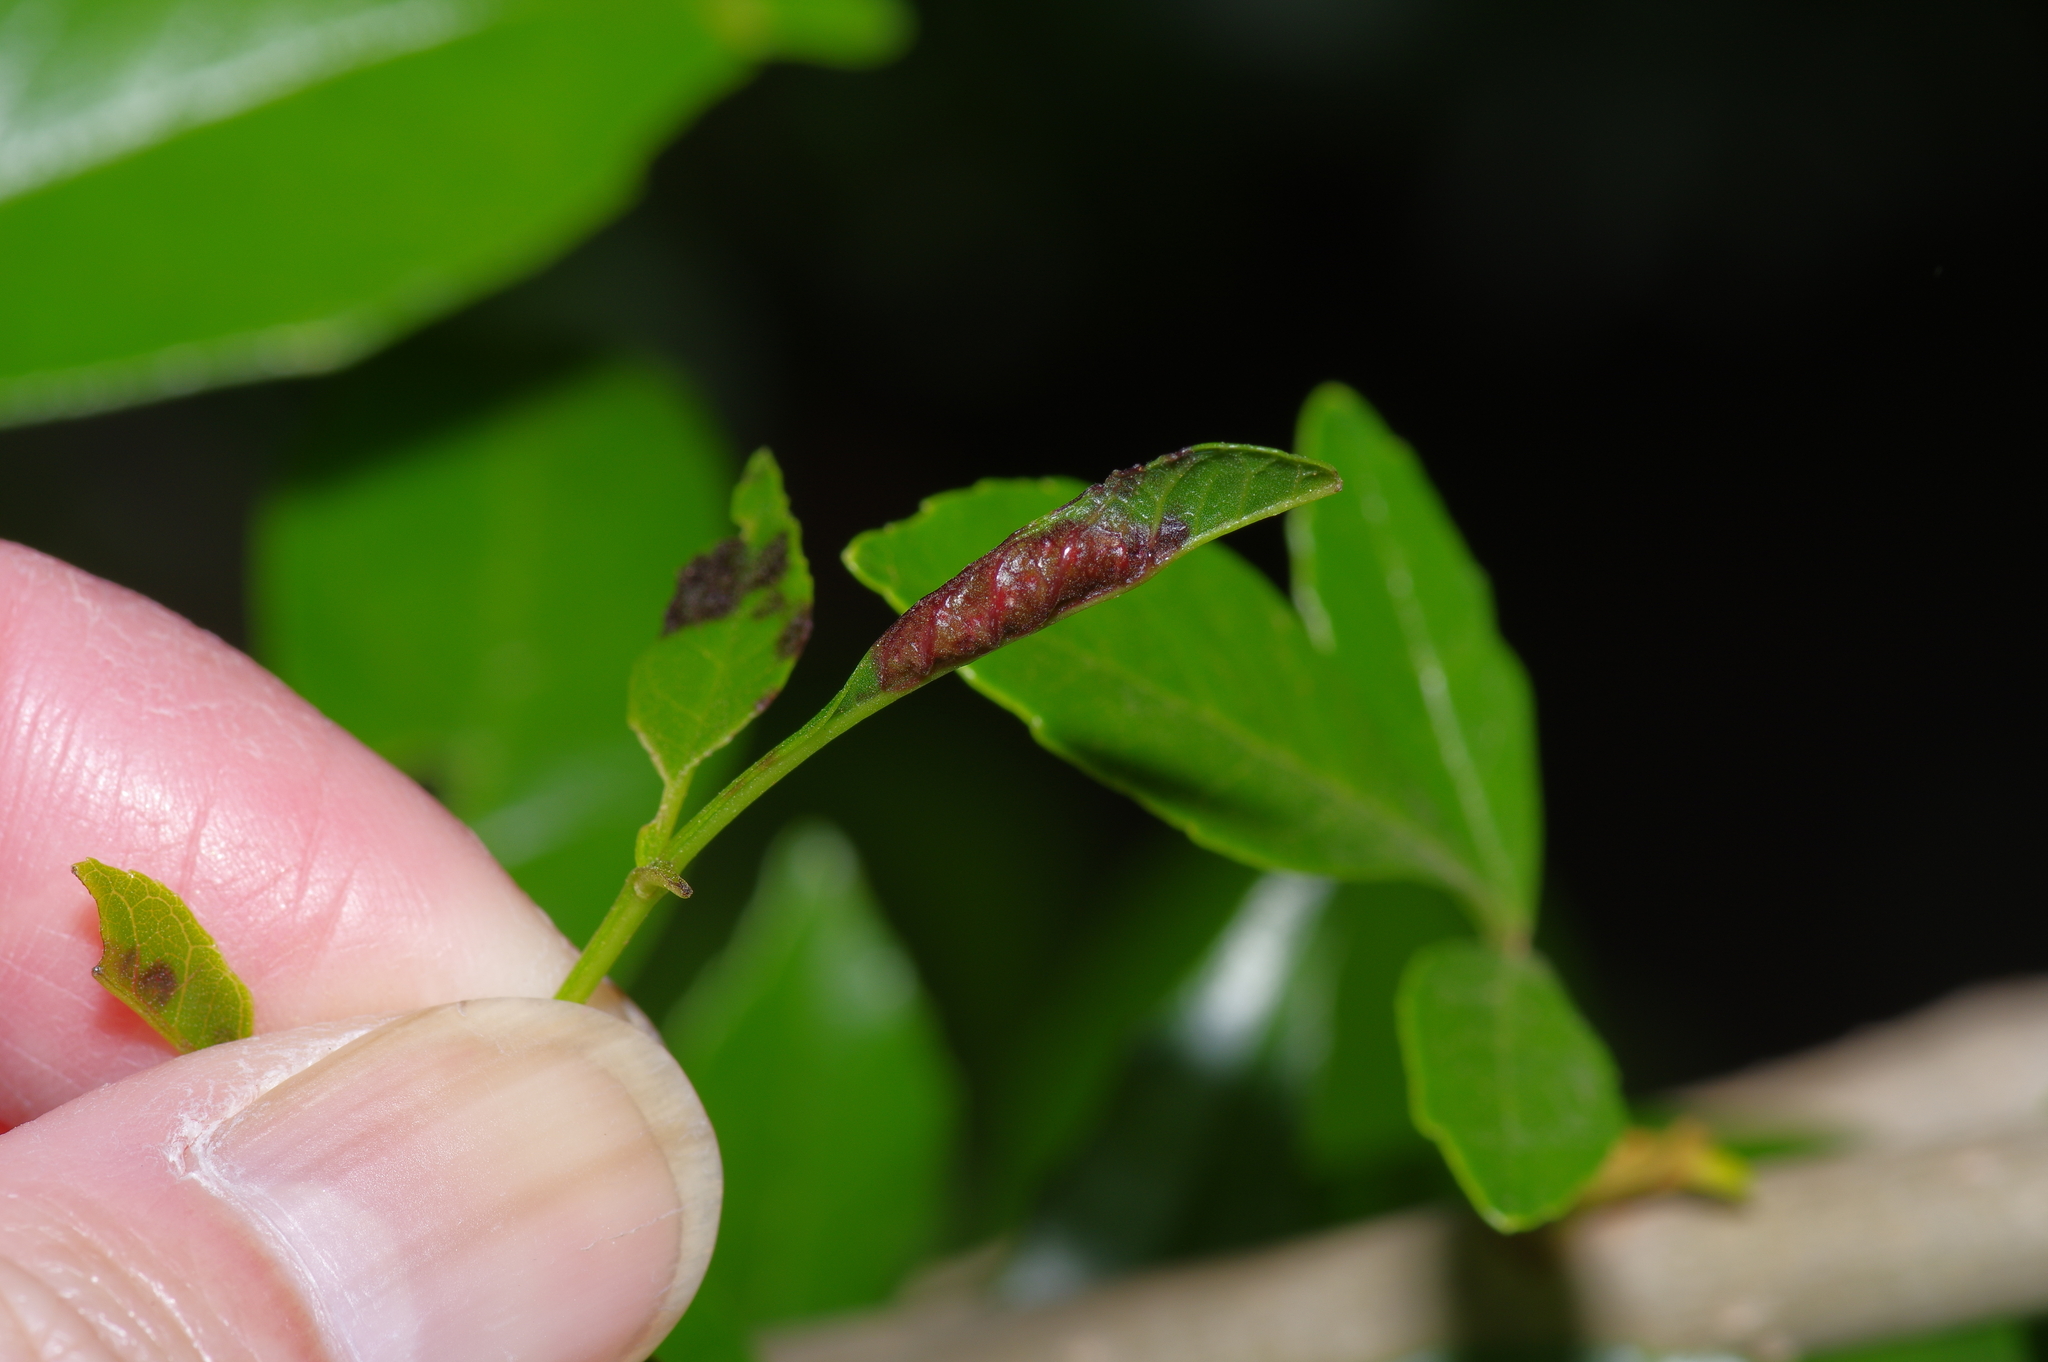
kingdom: Animalia
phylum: Arthropoda
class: Insecta
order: Diptera
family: Cecidomyiidae
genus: Dasineura
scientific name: Dasineura tumidosae
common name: Ash petiole gall midge
